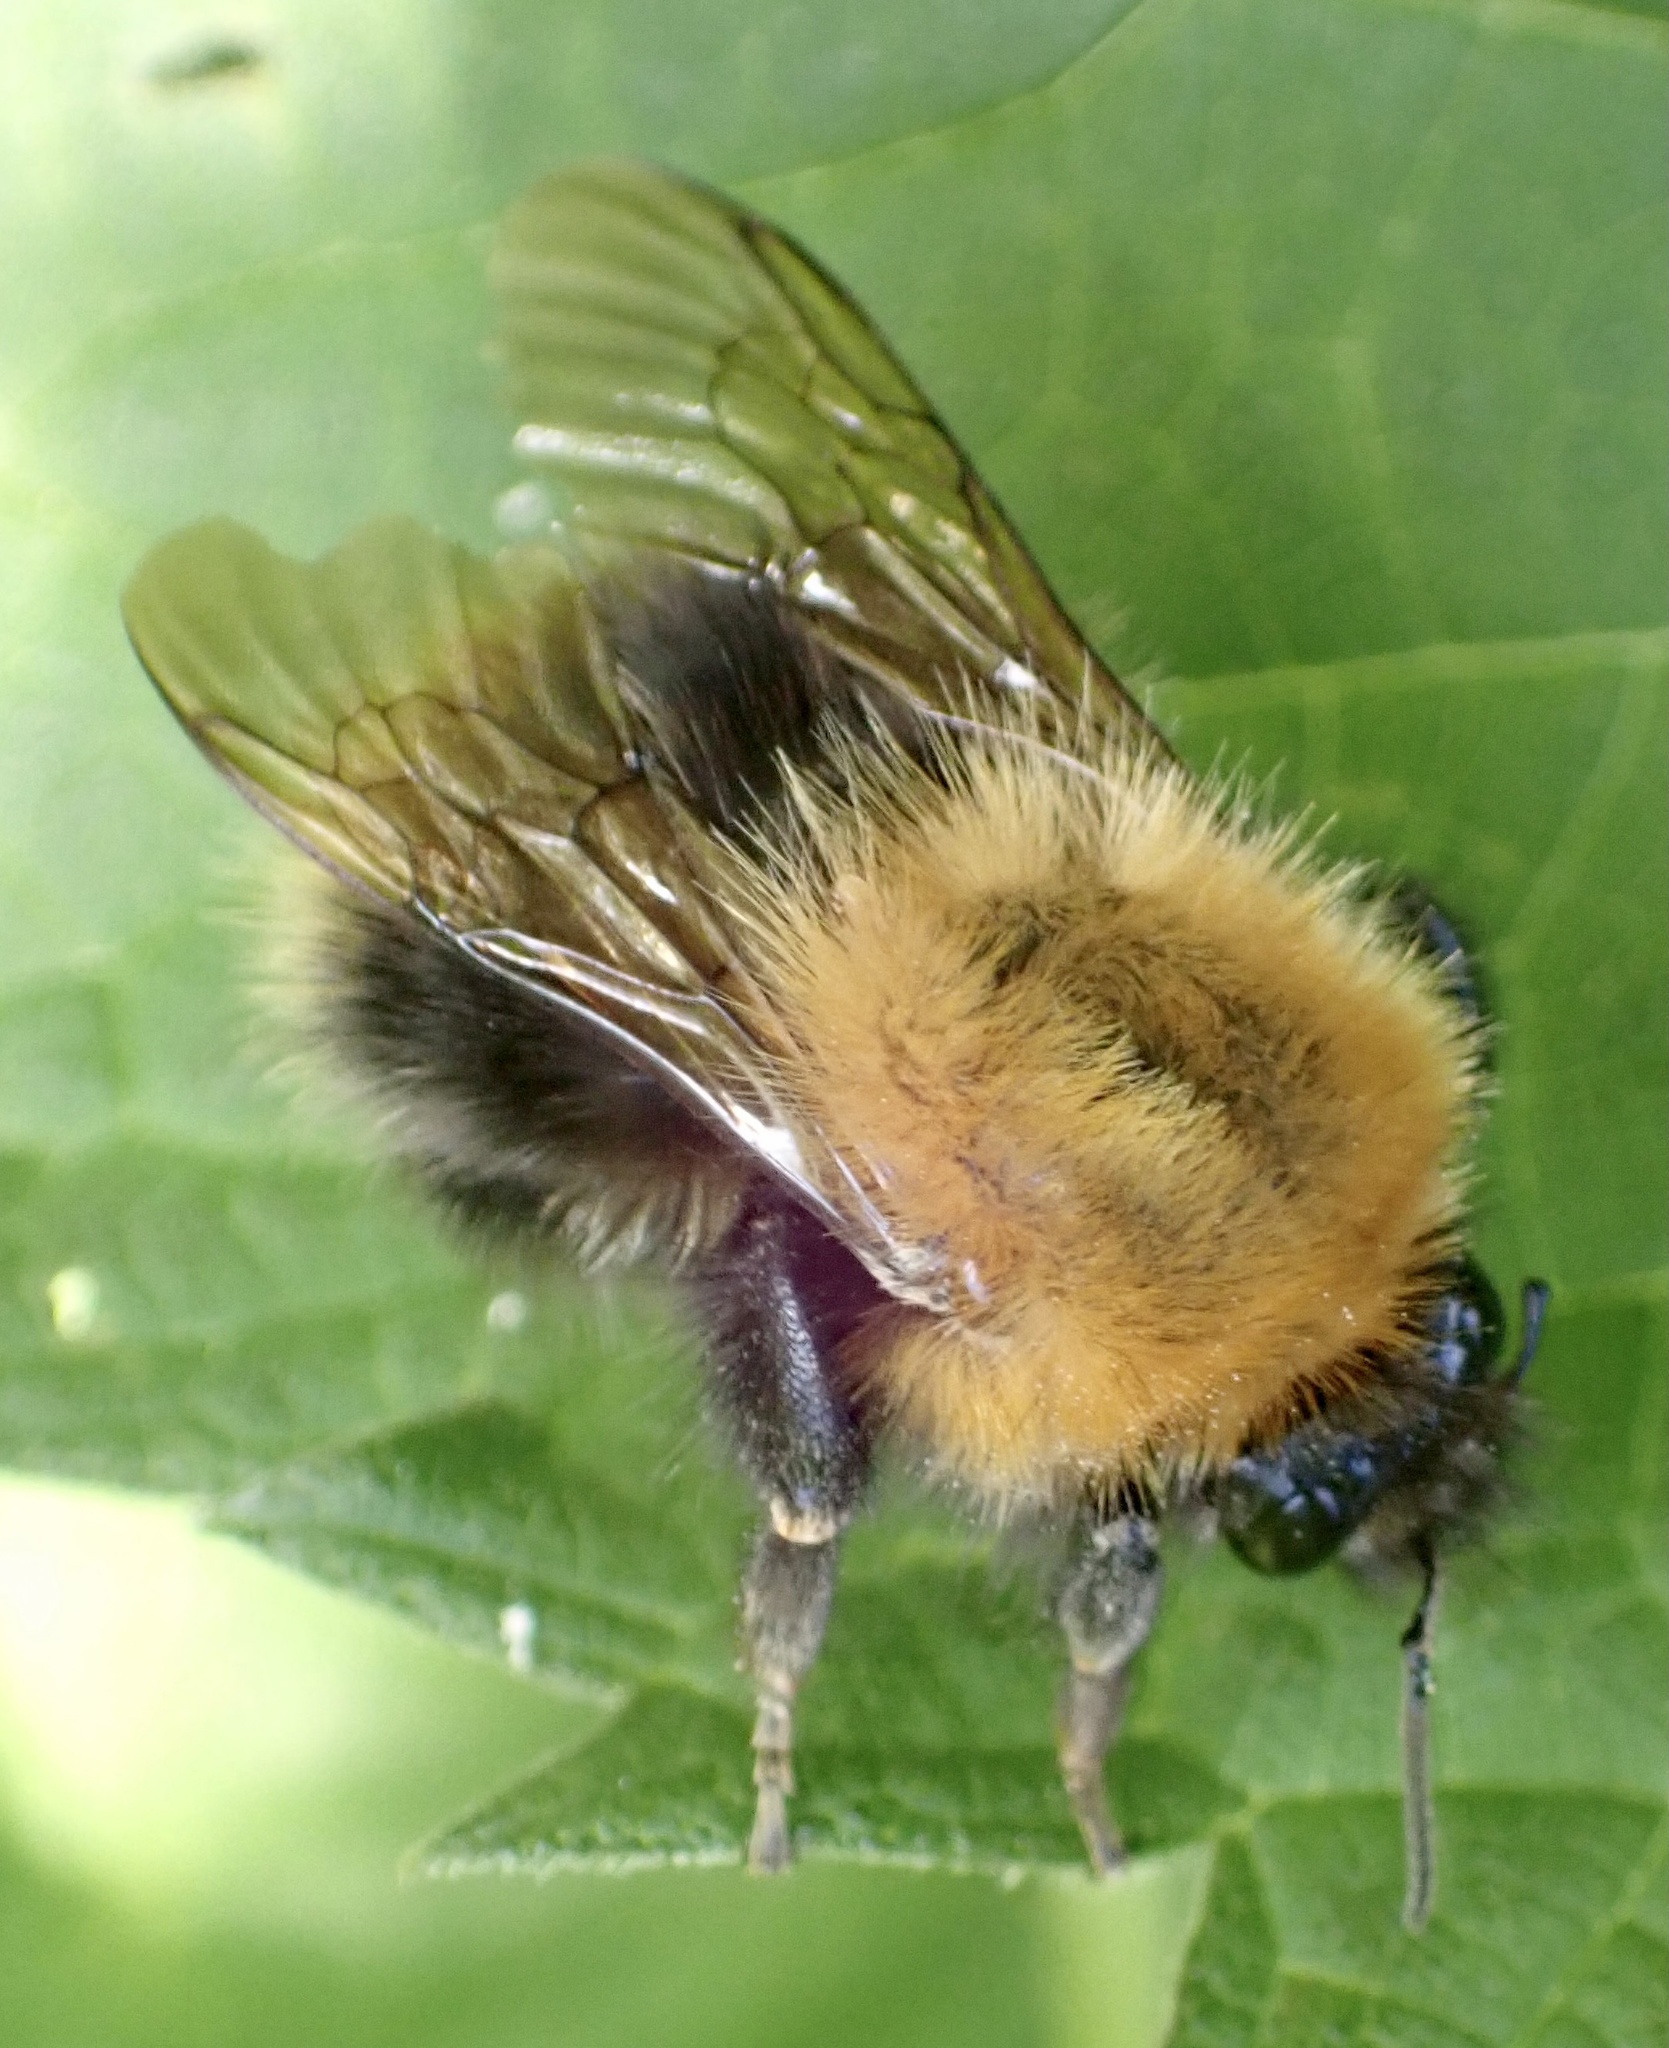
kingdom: Animalia
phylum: Arthropoda
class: Insecta
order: Hymenoptera
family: Apidae
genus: Bombus
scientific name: Bombus pascuorum
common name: Common carder bee
